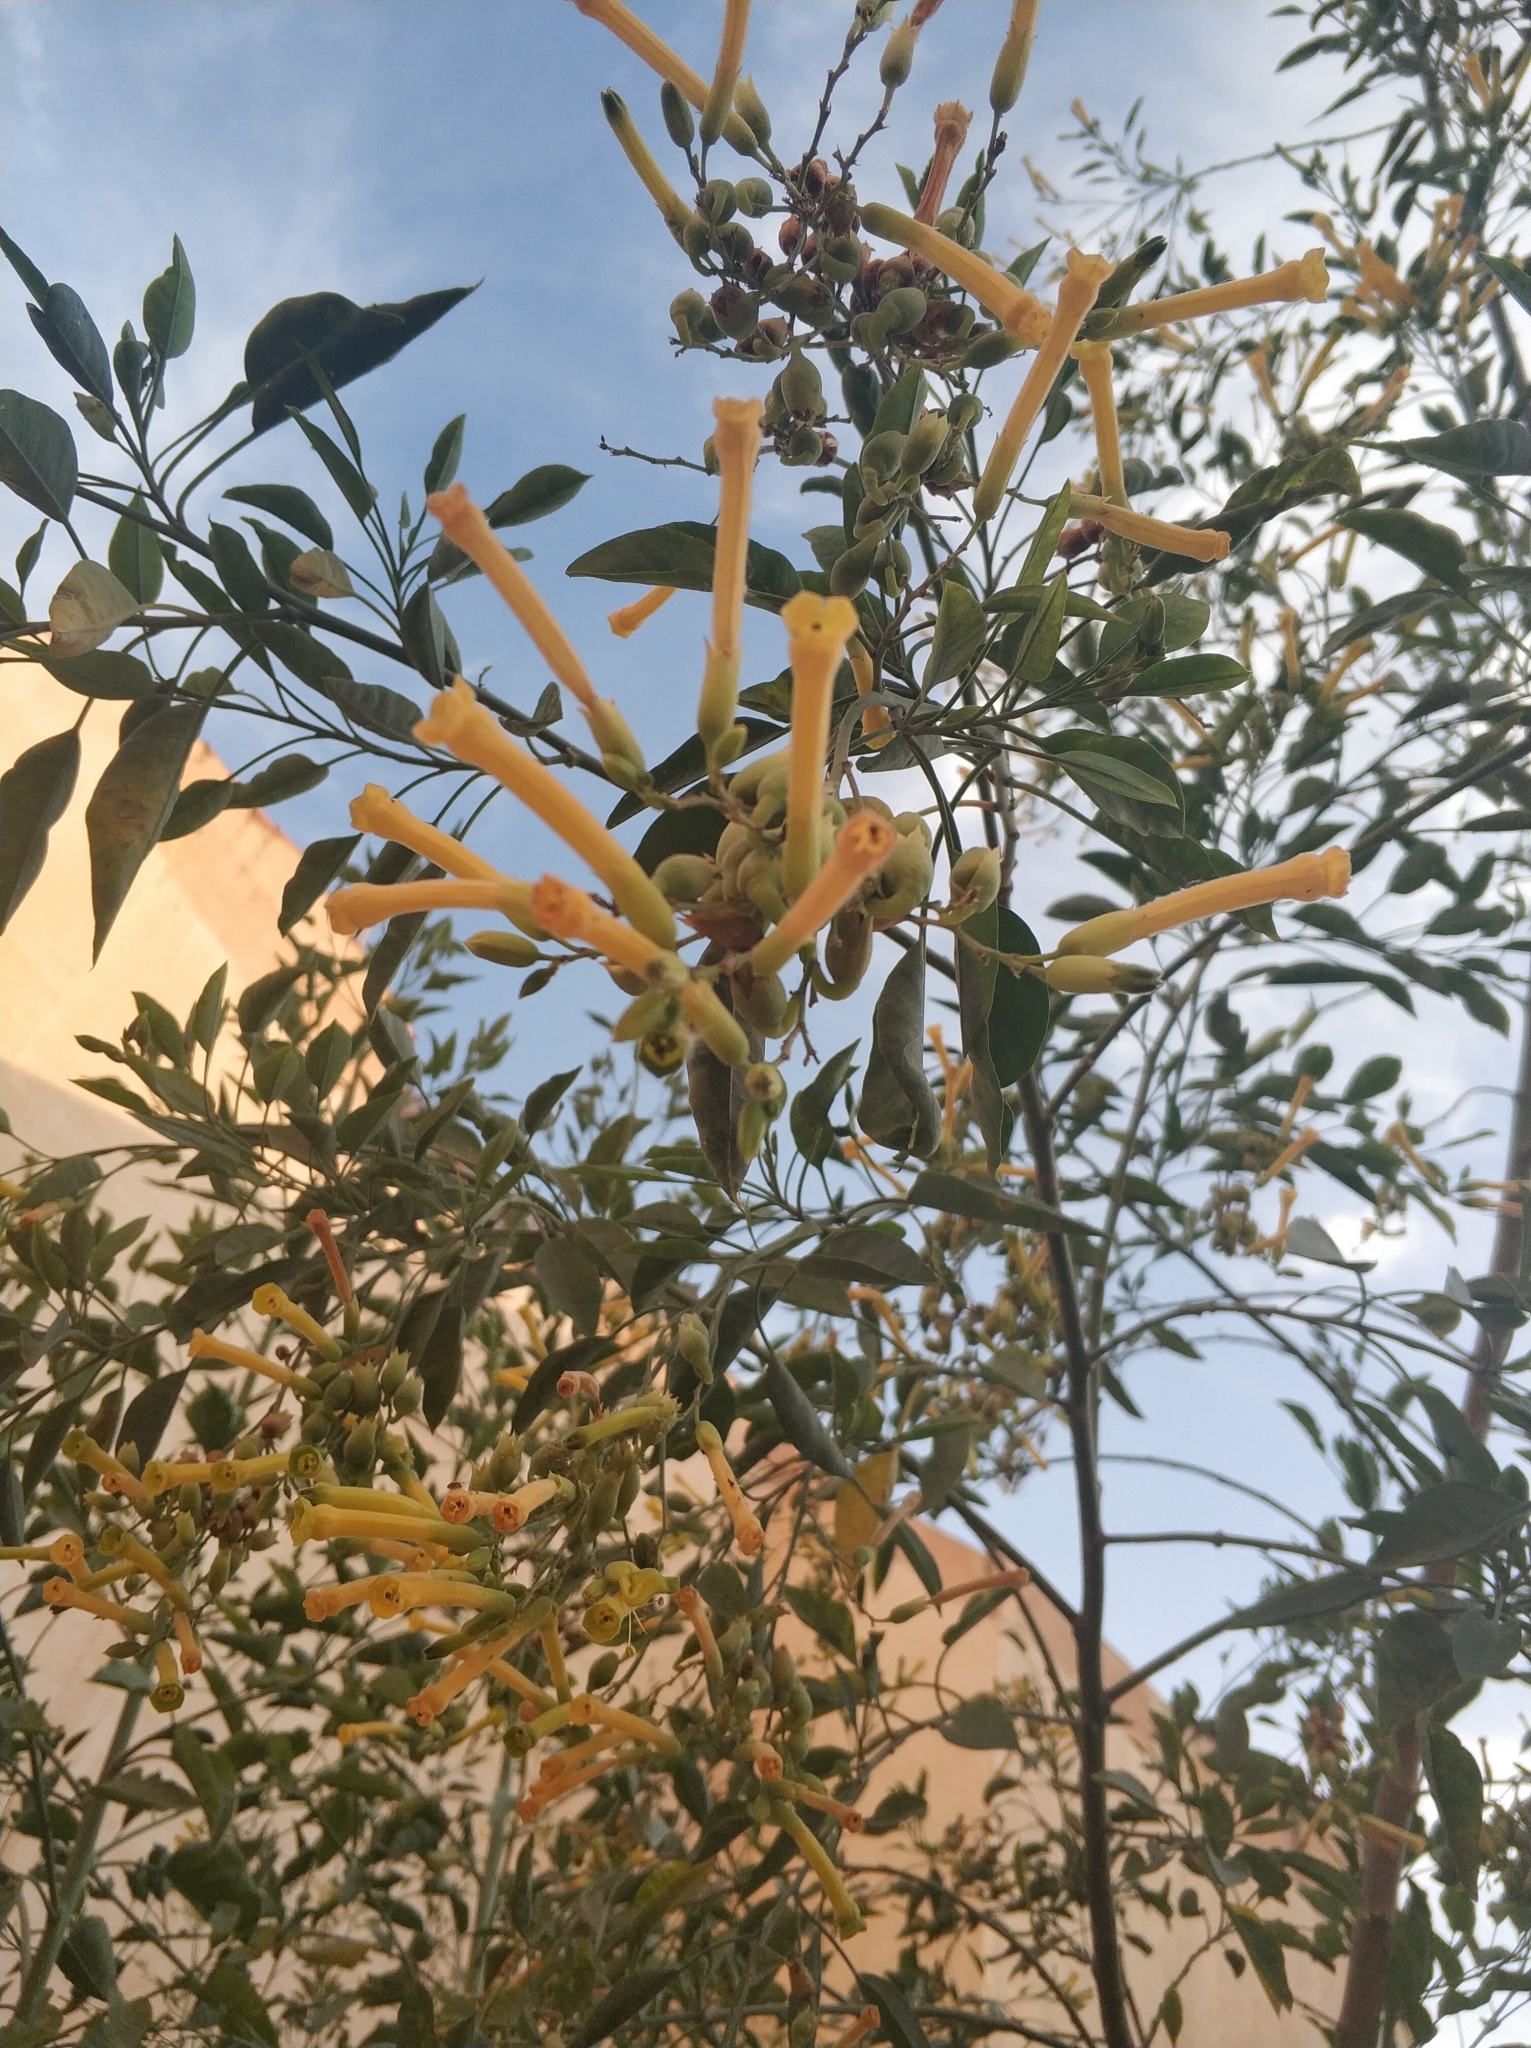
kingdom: Plantae
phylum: Tracheophyta
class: Magnoliopsida
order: Solanales
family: Solanaceae
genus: Nicotiana
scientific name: Nicotiana glauca
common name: Tree tobacco
